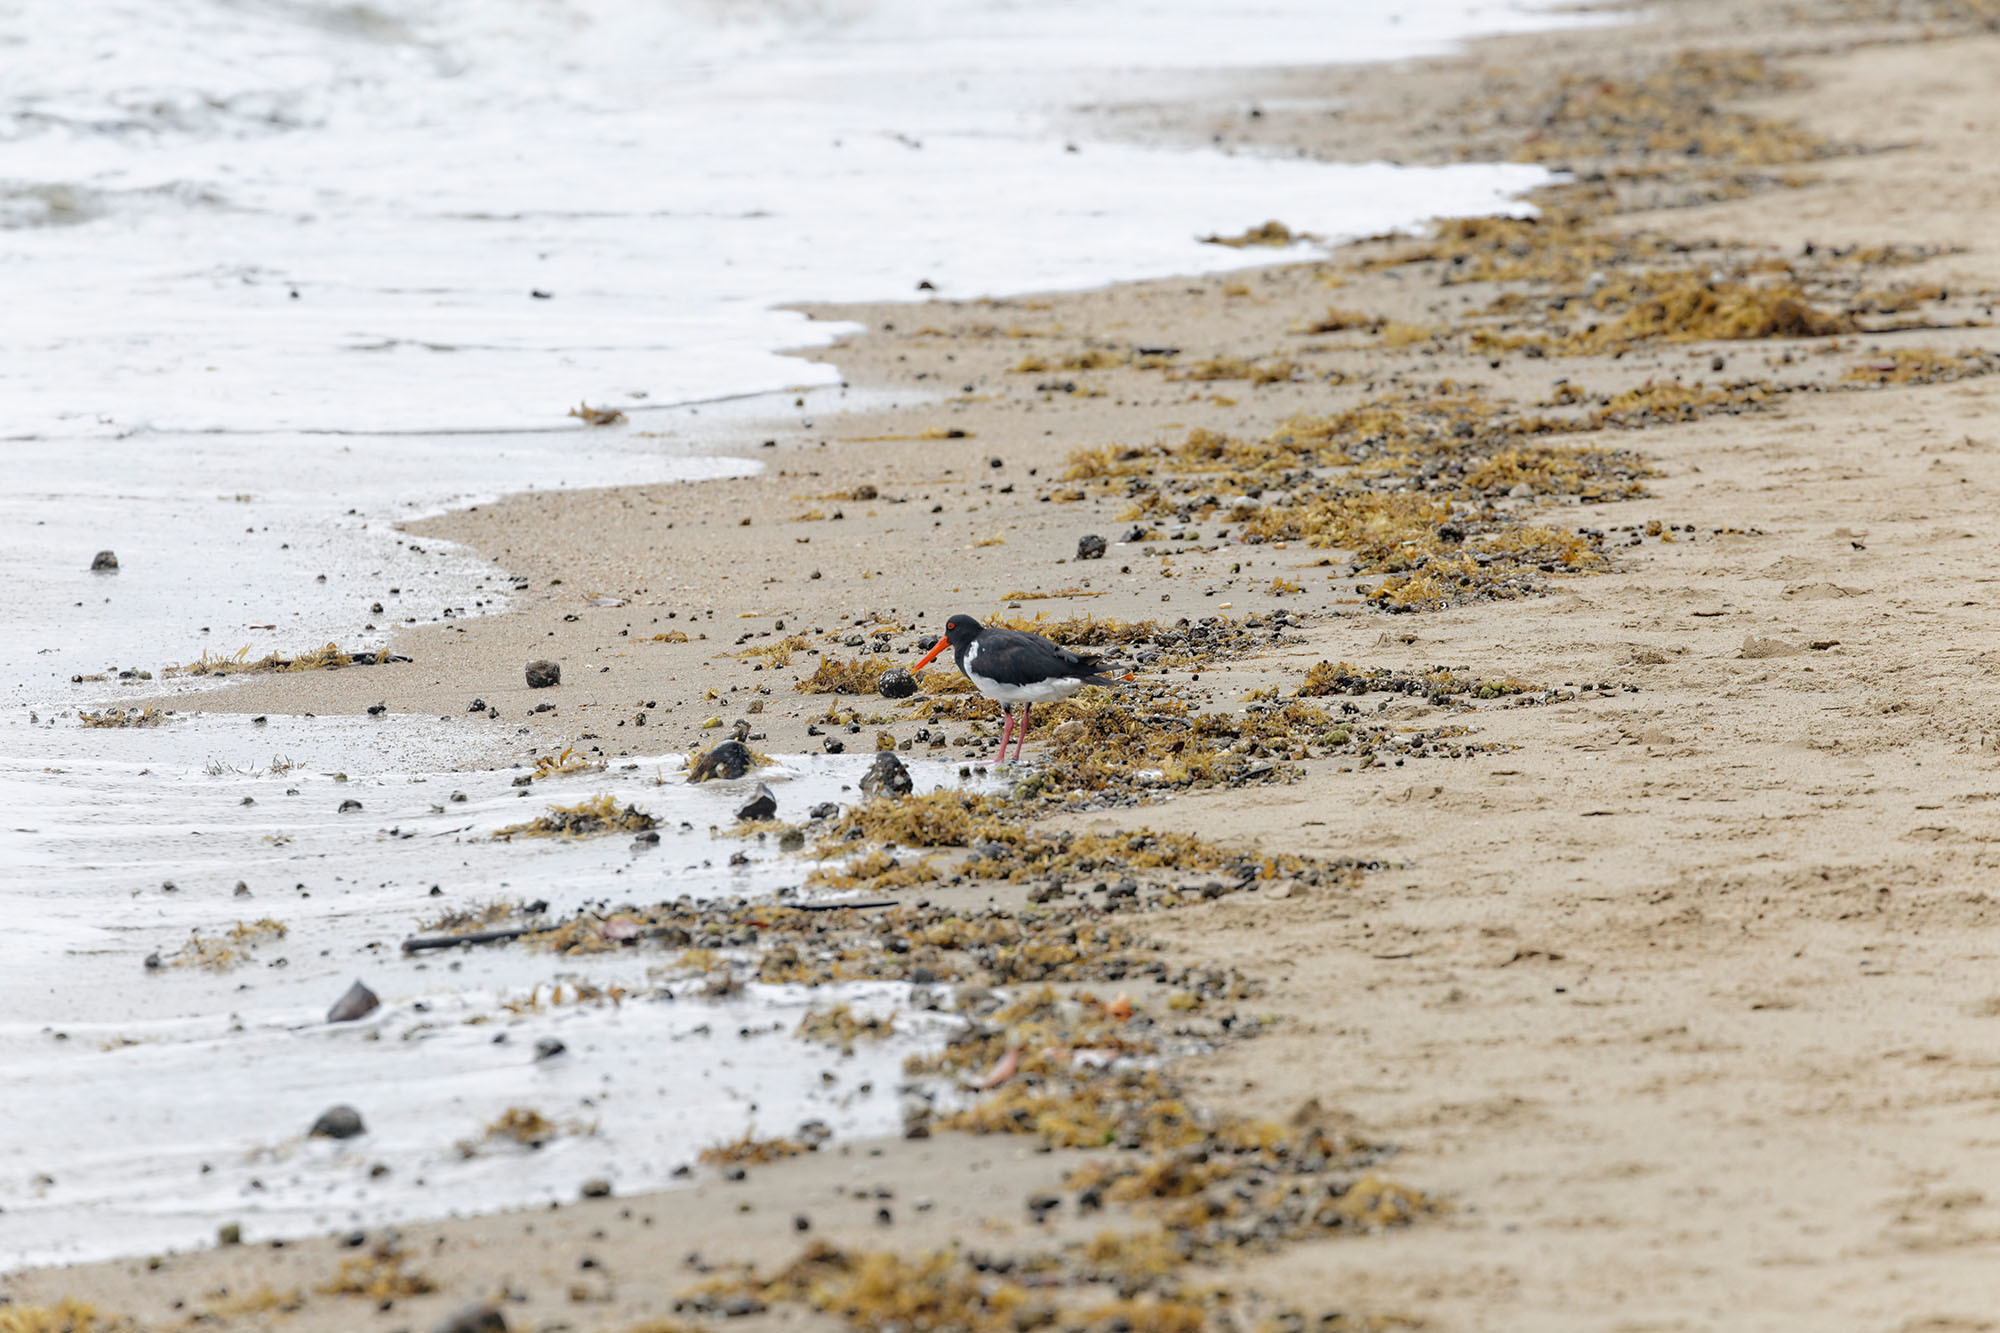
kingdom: Animalia
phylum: Chordata
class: Aves
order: Charadriiformes
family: Haematopodidae
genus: Haematopus
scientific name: Haematopus longirostris
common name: Pied oystercatcher
